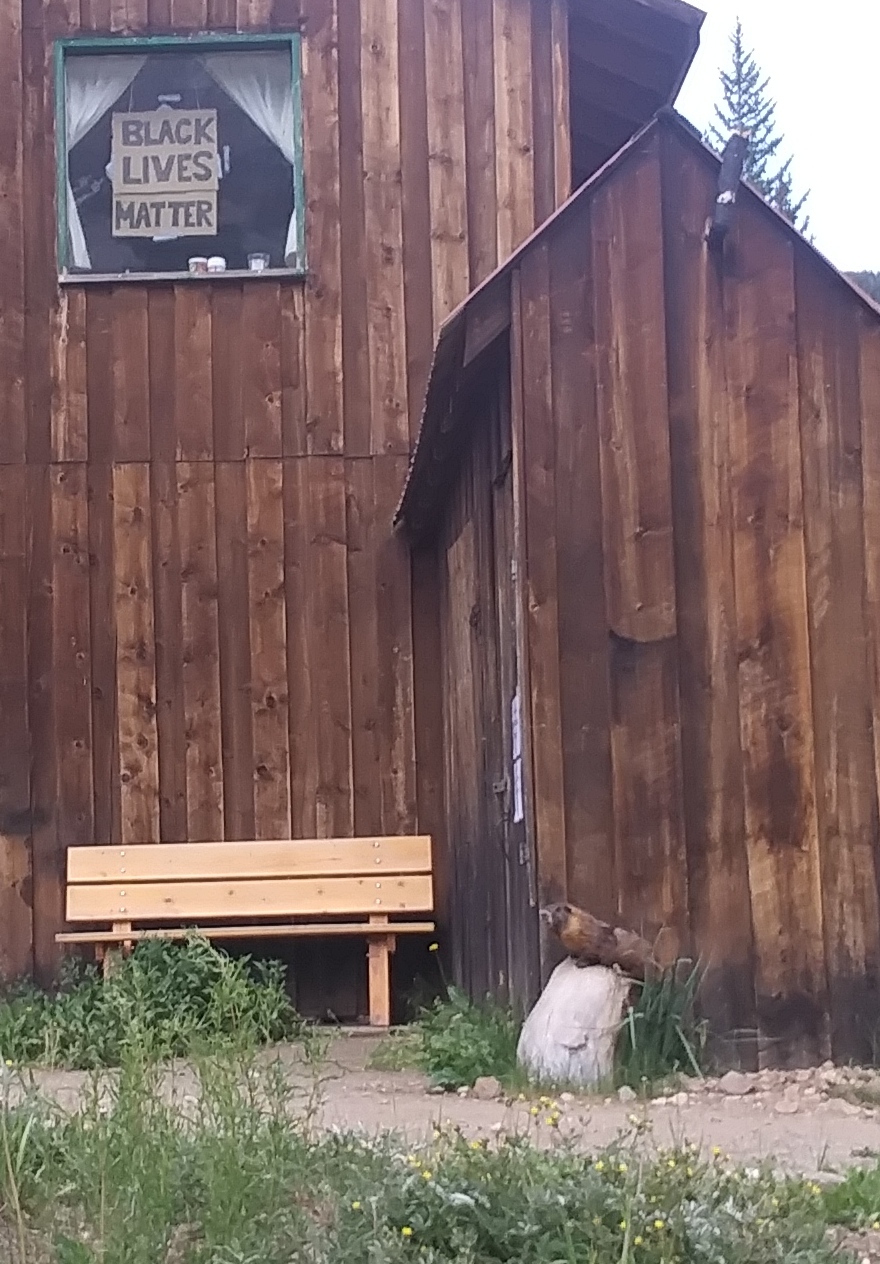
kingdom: Animalia
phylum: Chordata
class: Mammalia
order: Rodentia
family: Sciuridae
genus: Marmota
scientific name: Marmota flaviventris
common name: Yellow-bellied marmot
